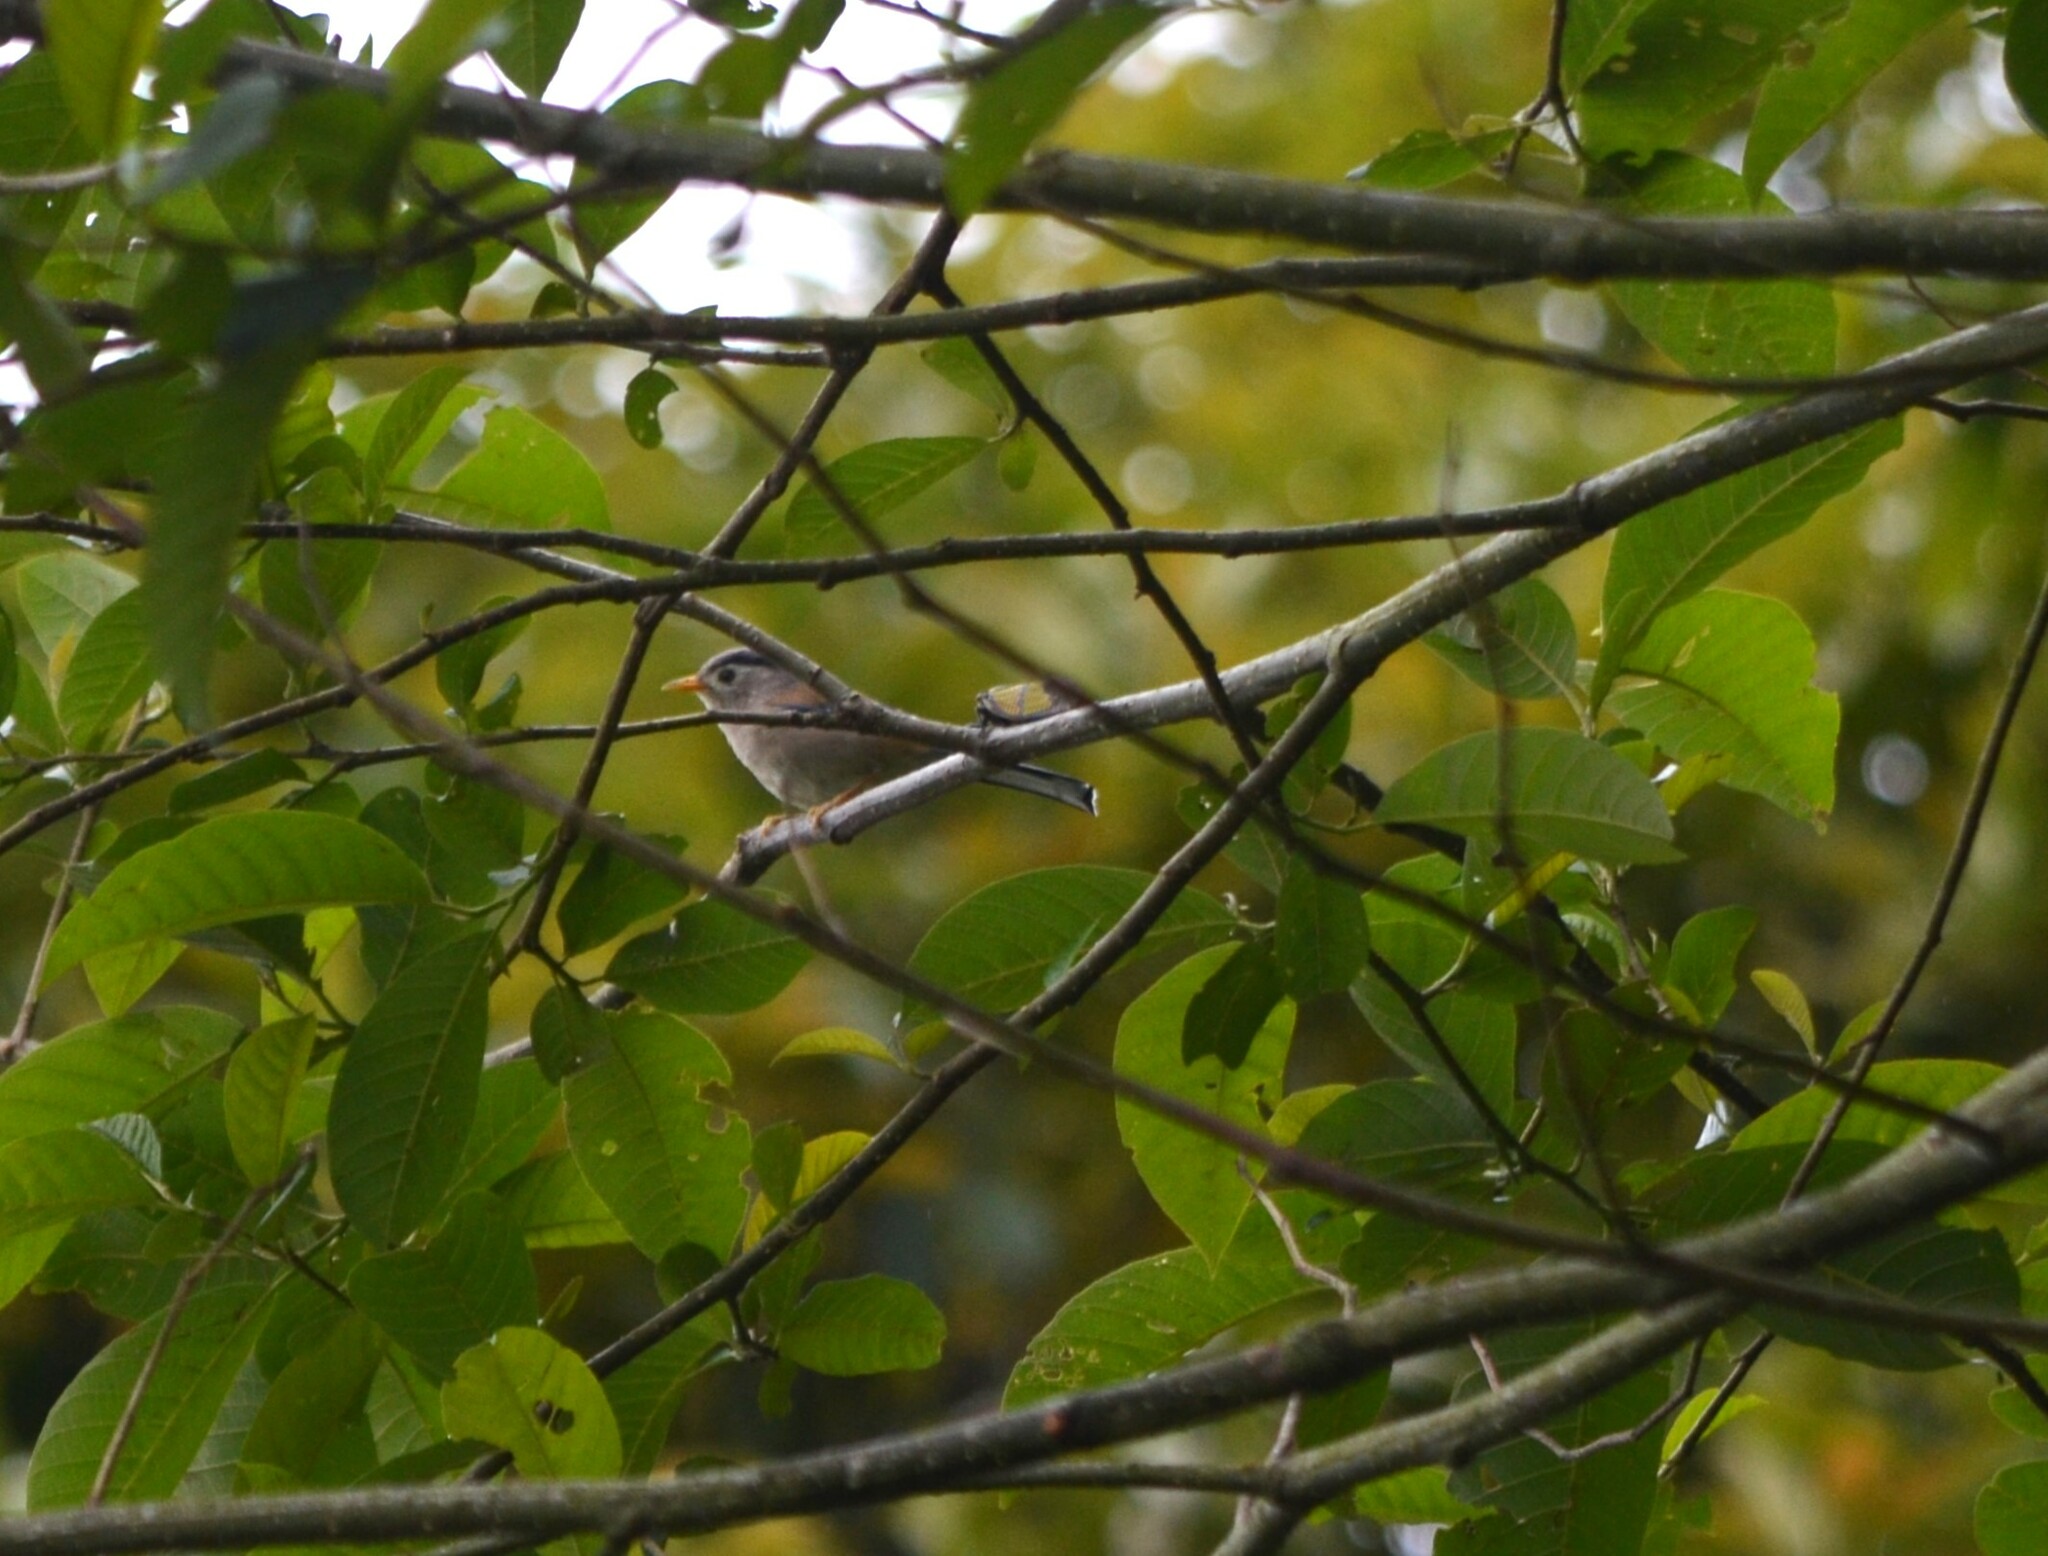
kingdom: Animalia
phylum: Chordata
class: Aves
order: Passeriformes
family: Leiothrichidae
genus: Minla
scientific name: Minla cyanouroptera
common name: Blue-winged minla
